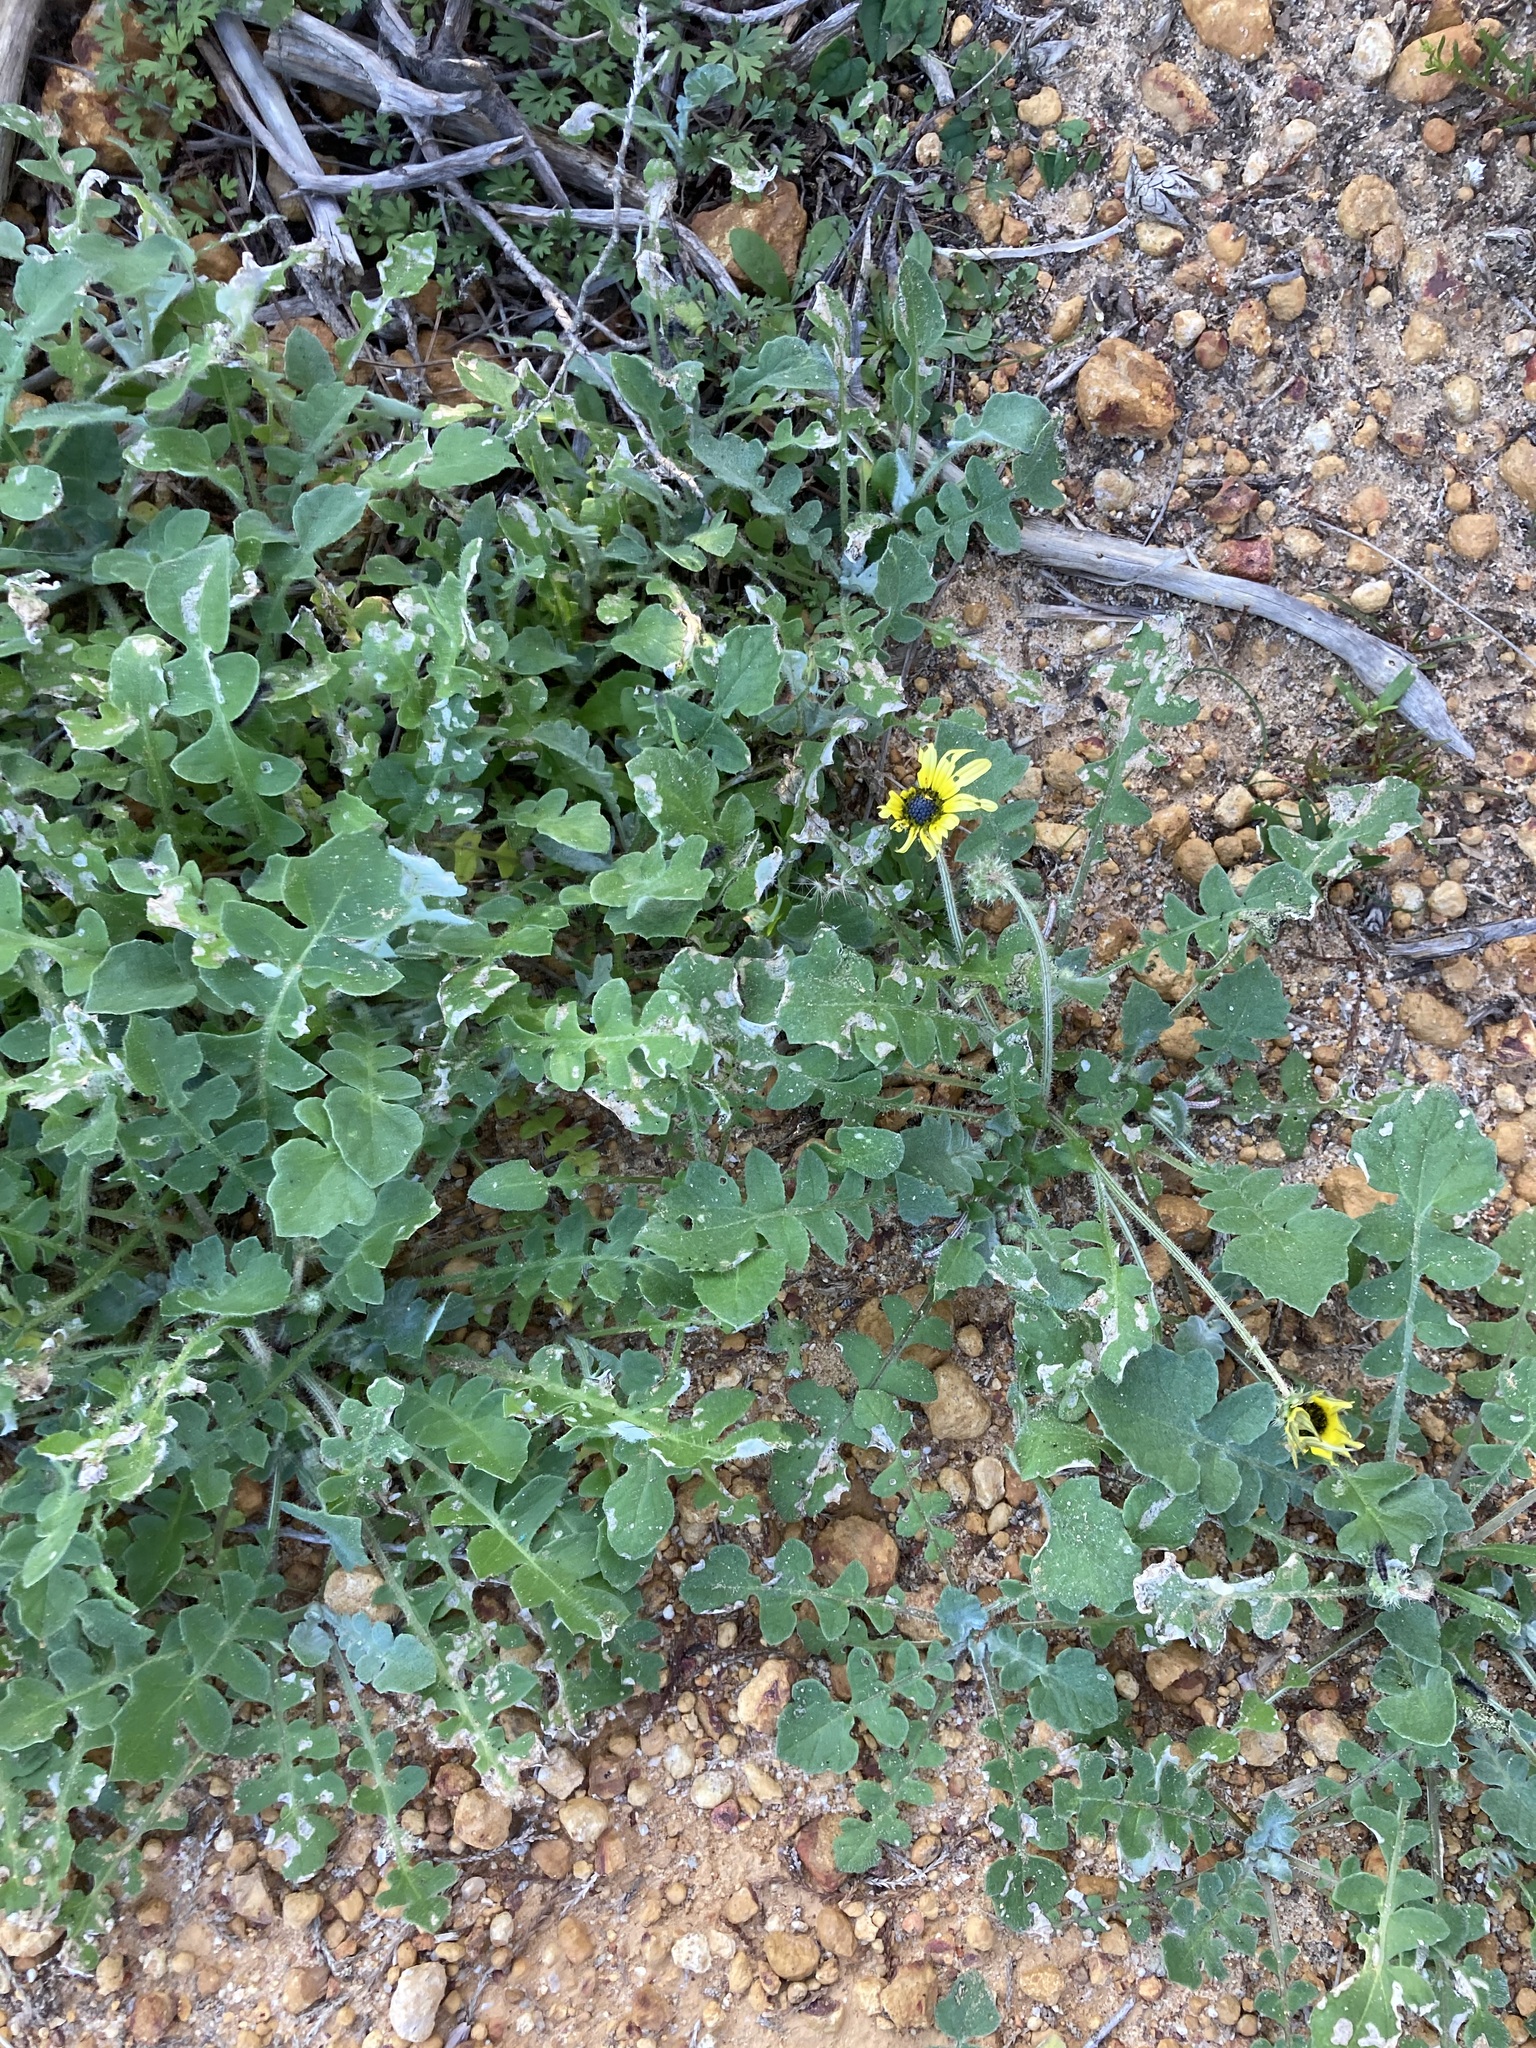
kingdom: Plantae
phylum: Tracheophyta
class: Magnoliopsida
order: Asterales
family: Asteraceae
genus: Arctotheca
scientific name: Arctotheca calendula
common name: Capeweed
